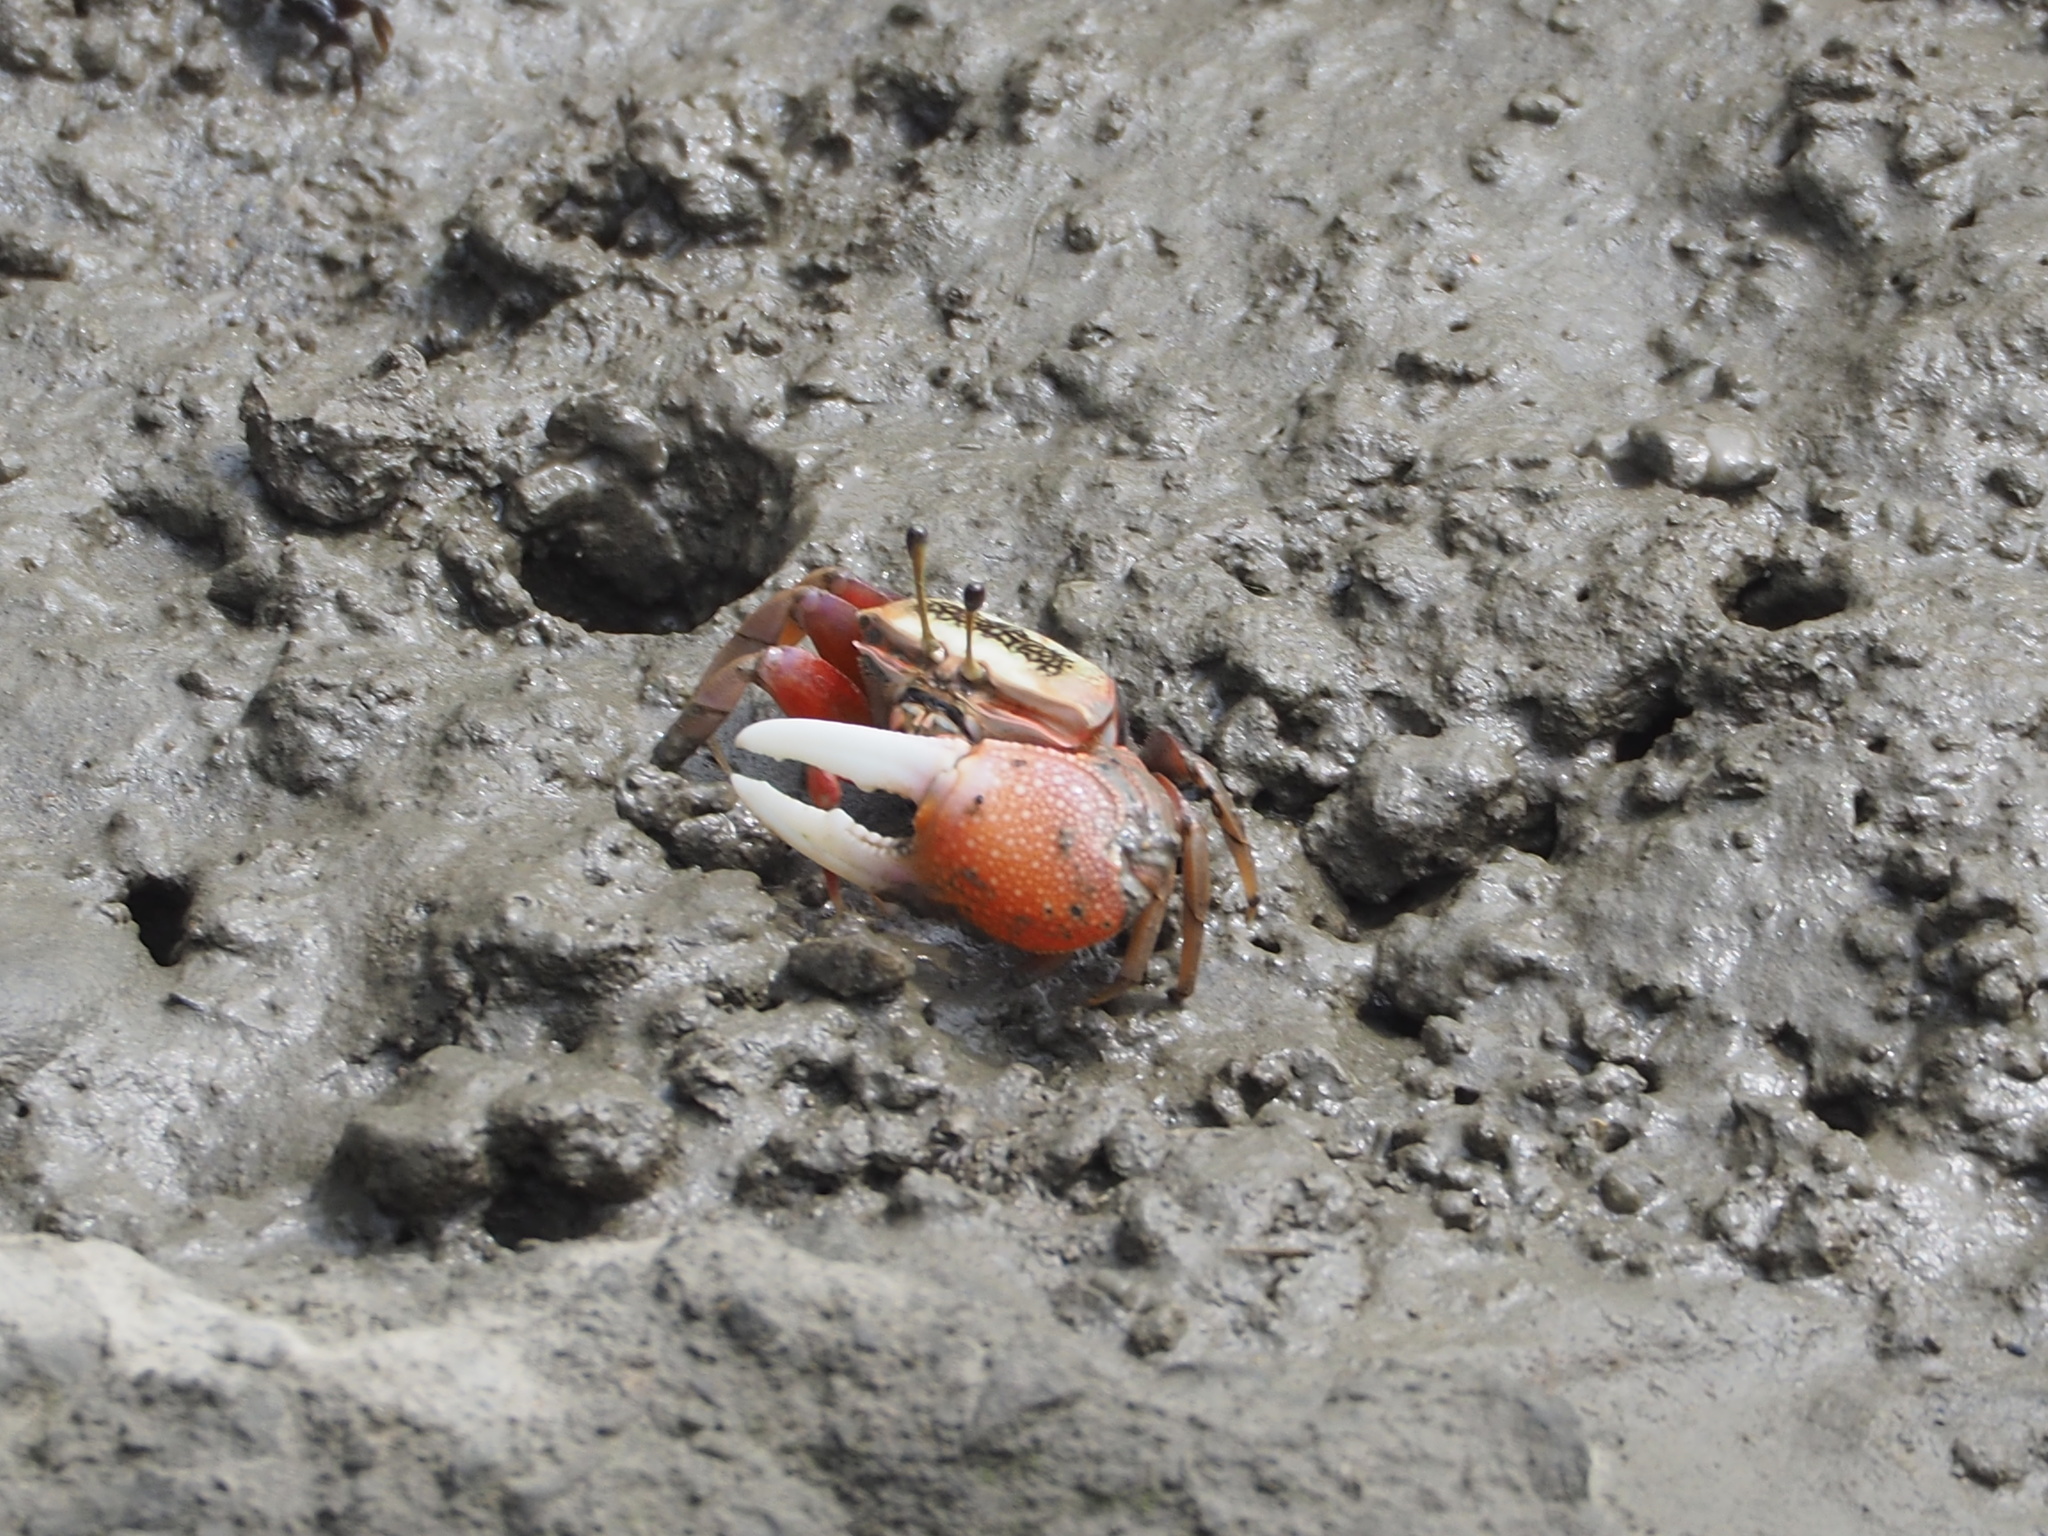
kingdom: Animalia
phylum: Arthropoda
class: Malacostraca
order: Decapoda
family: Ocypodidae
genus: Tubuca
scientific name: Tubuca arcuata
